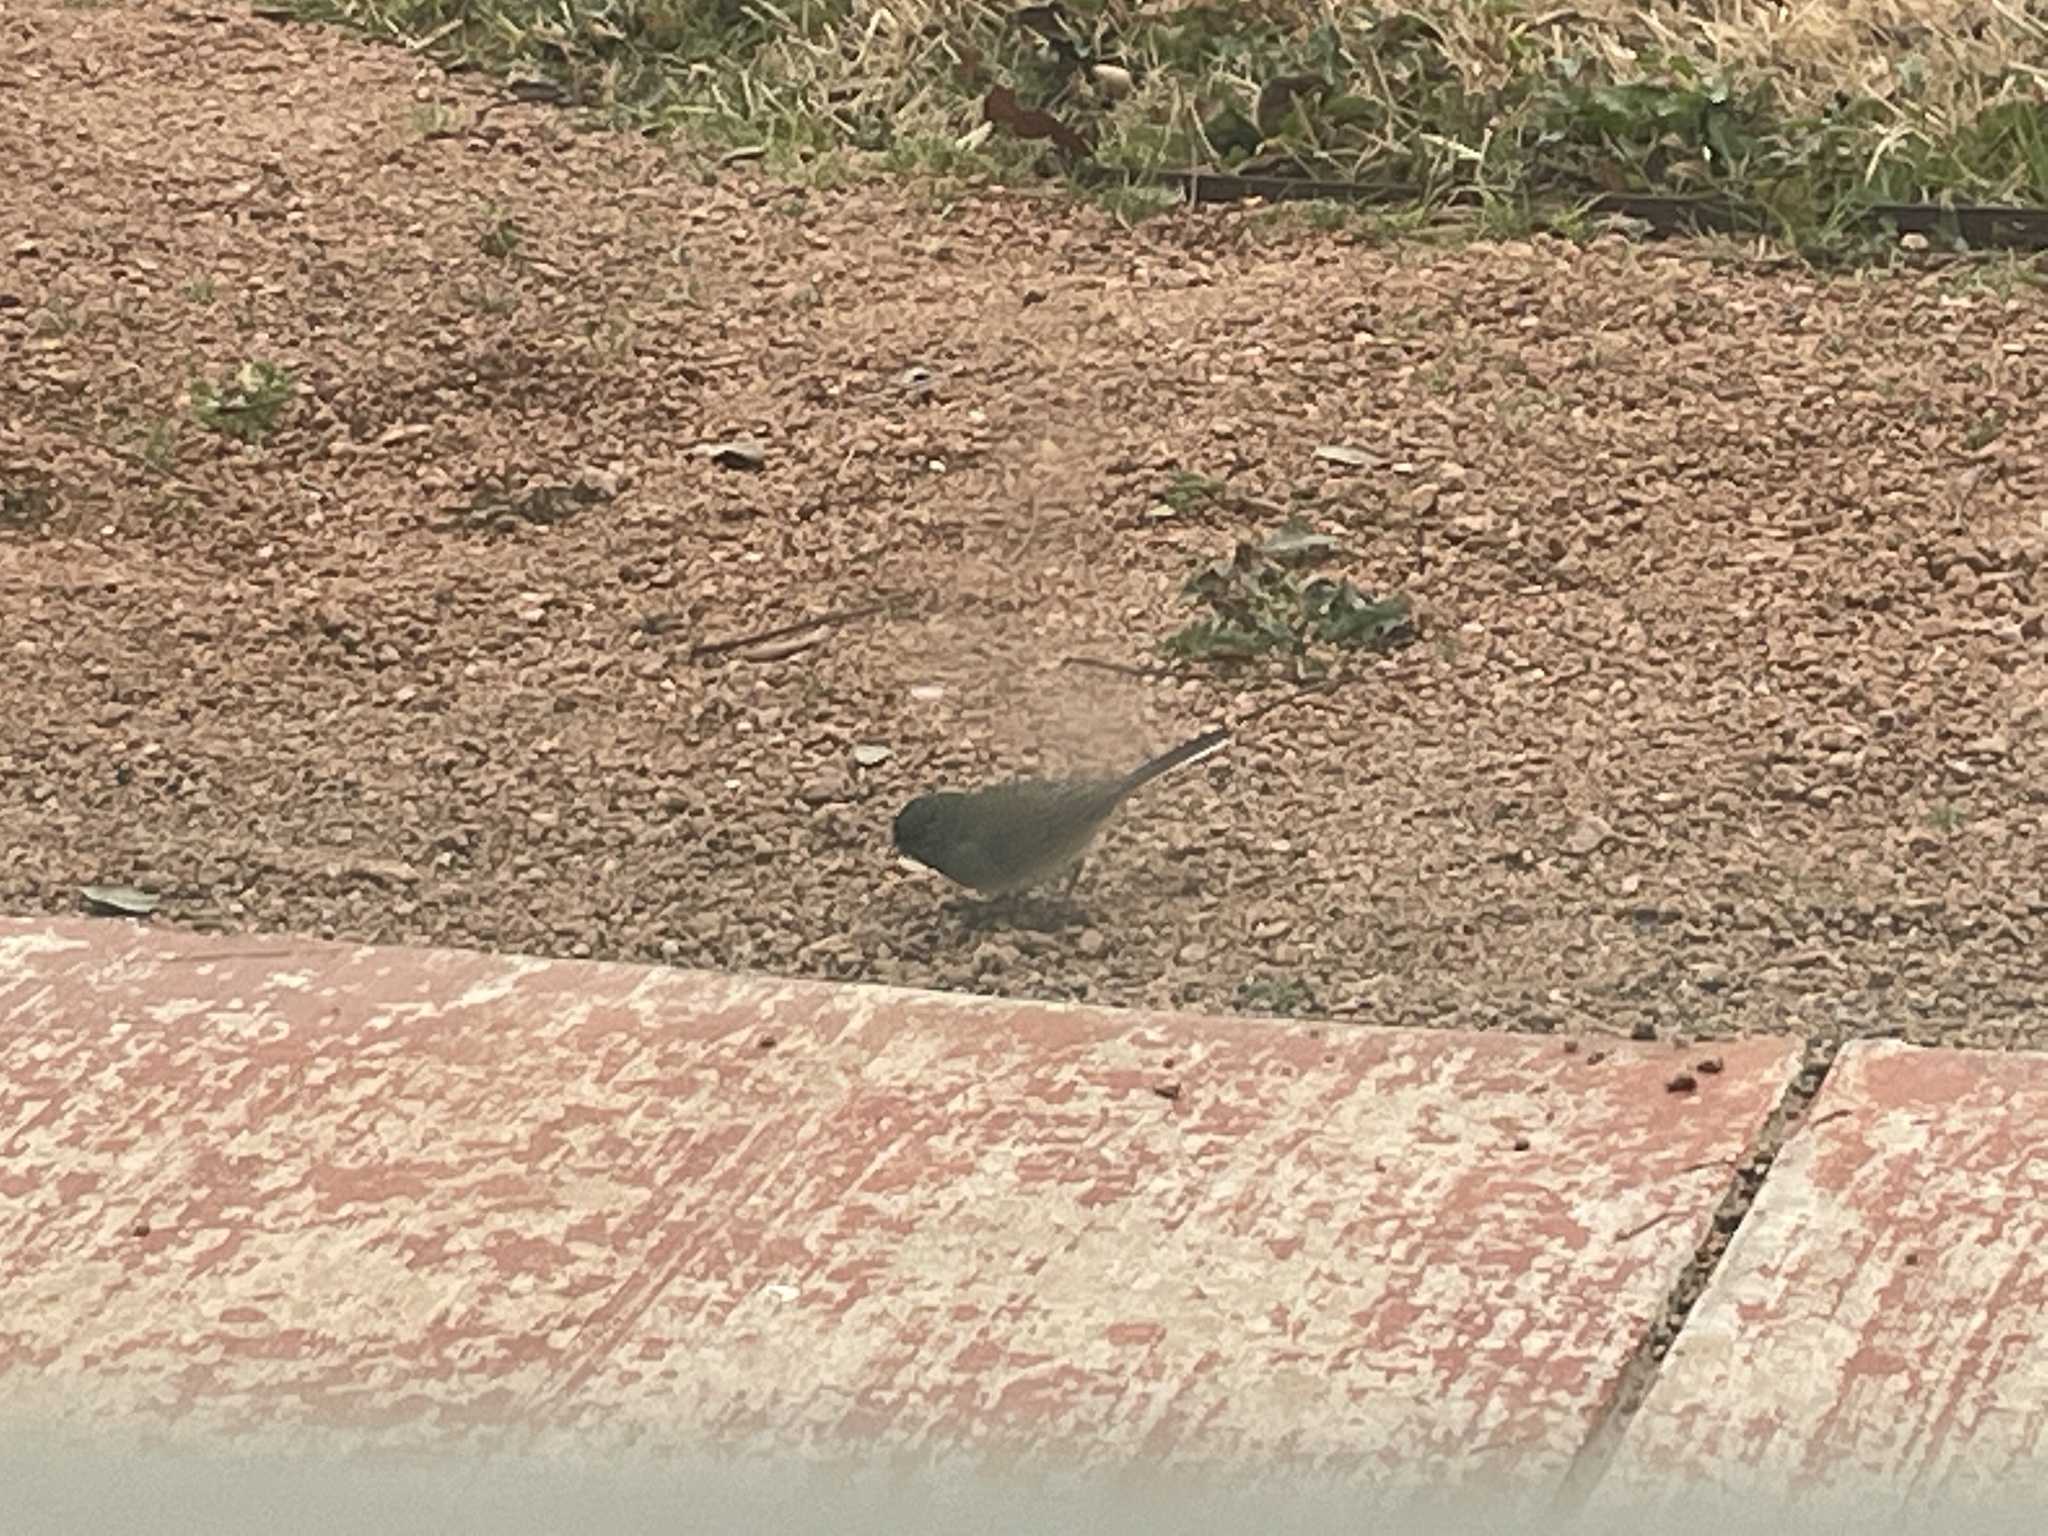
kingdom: Animalia
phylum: Chordata
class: Aves
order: Passeriformes
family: Passerellidae
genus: Junco
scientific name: Junco hyemalis
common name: Dark-eyed junco
